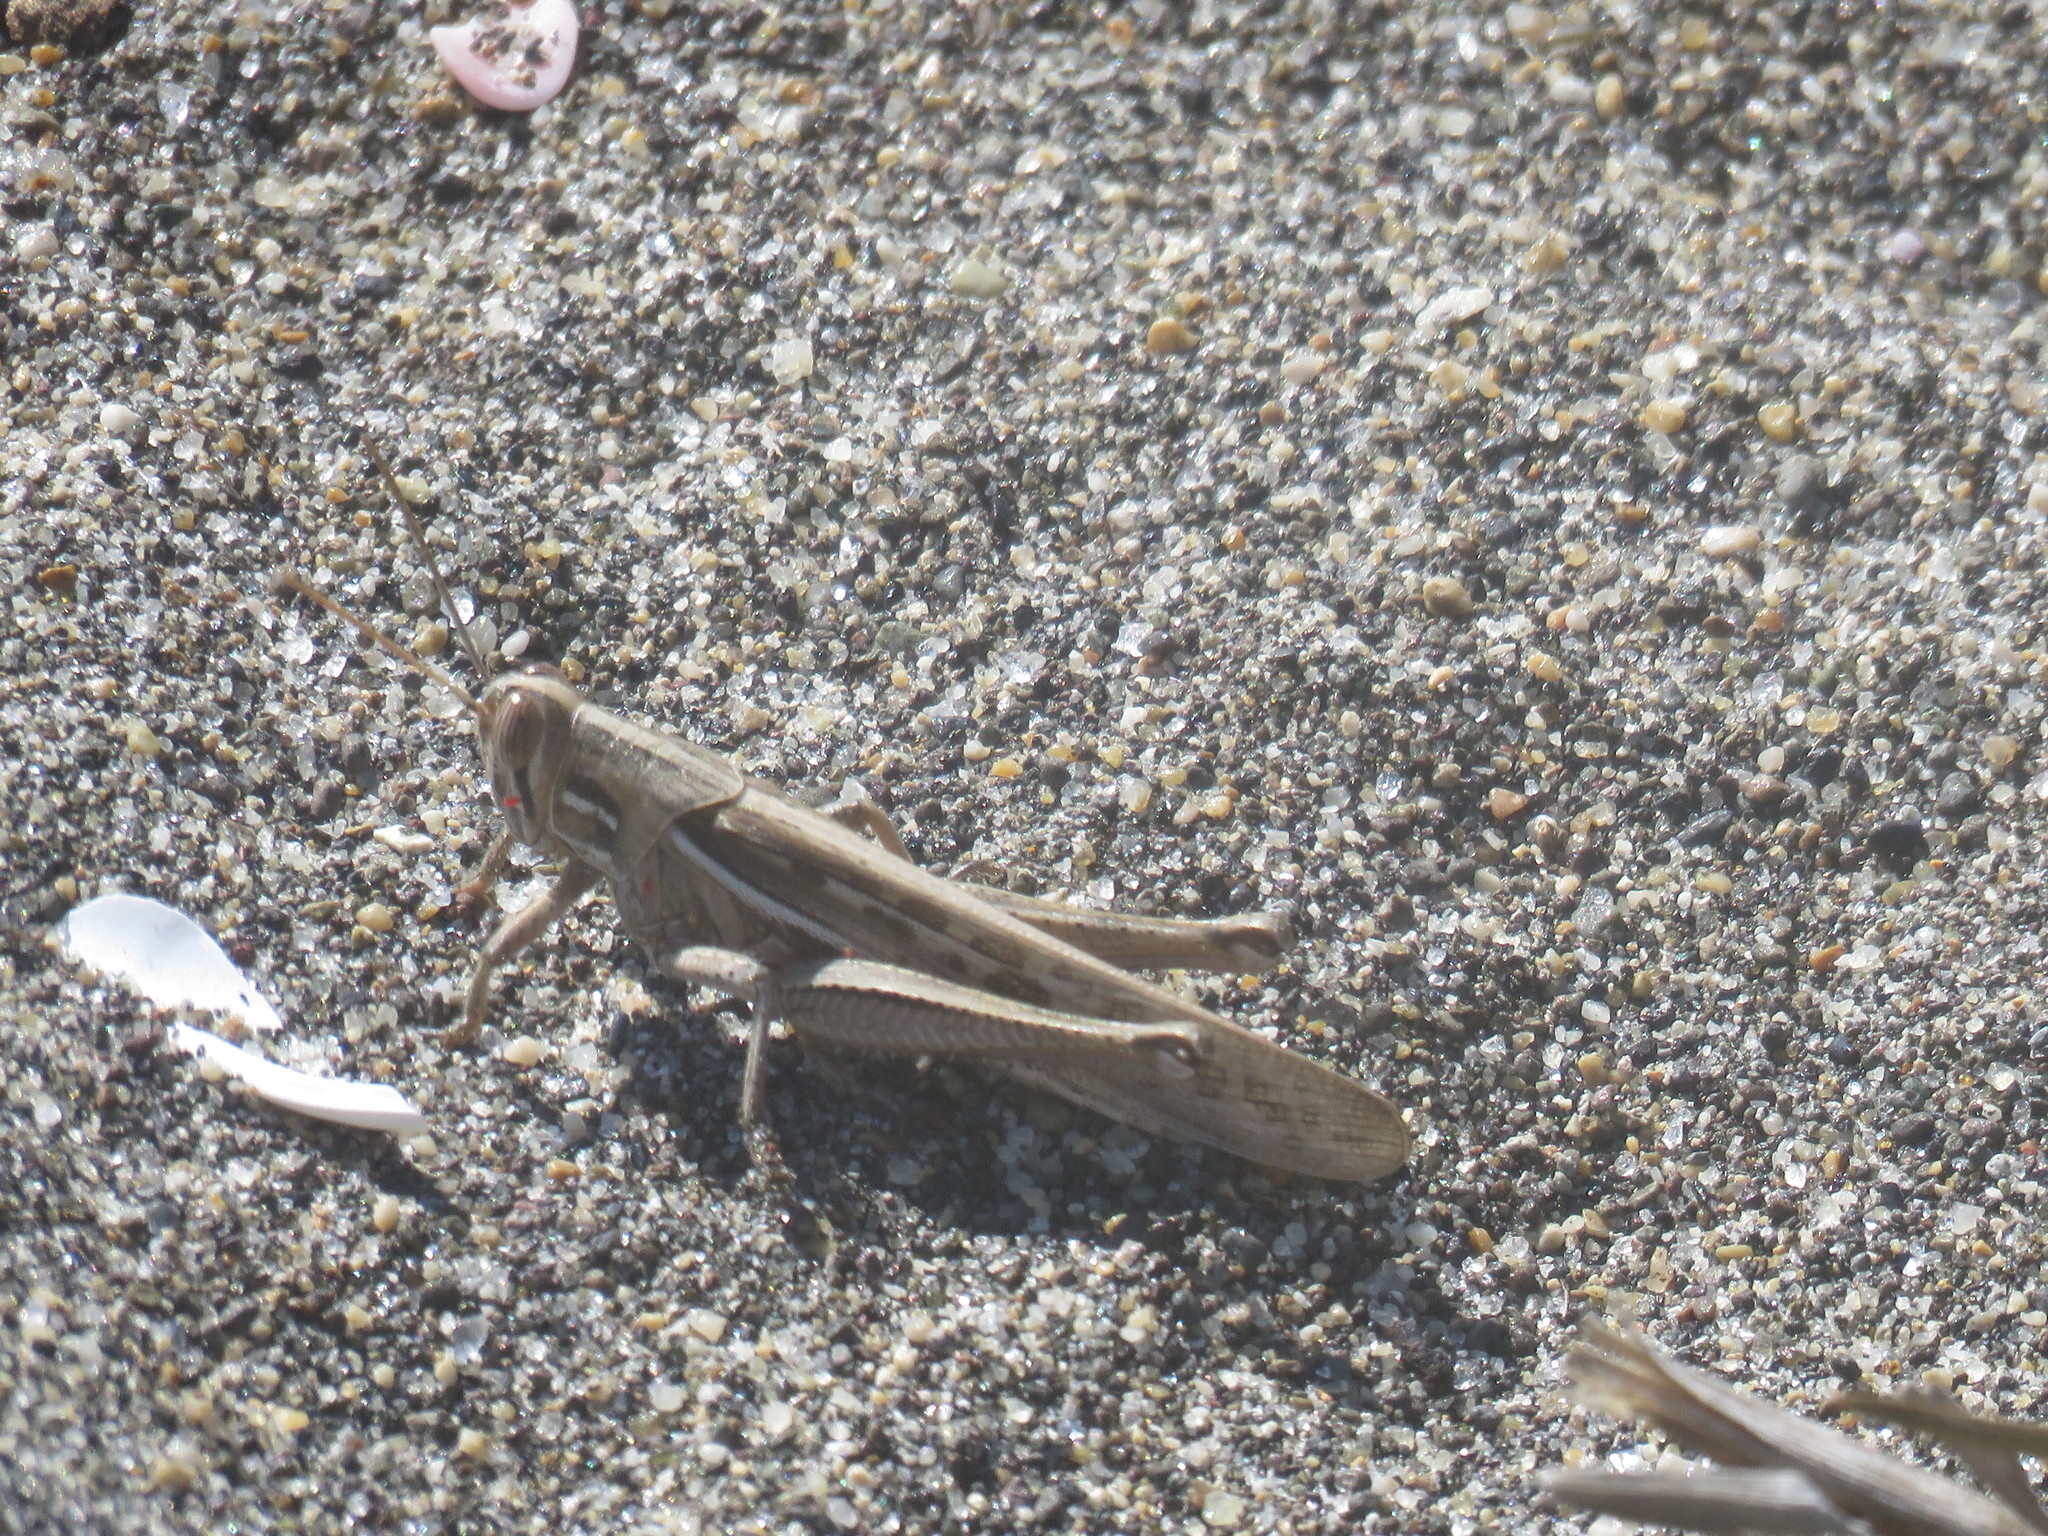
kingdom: Animalia
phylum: Arthropoda
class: Insecta
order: Orthoptera
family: Acrididae
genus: Schistocerca
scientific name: Schistocerca piceifrons
